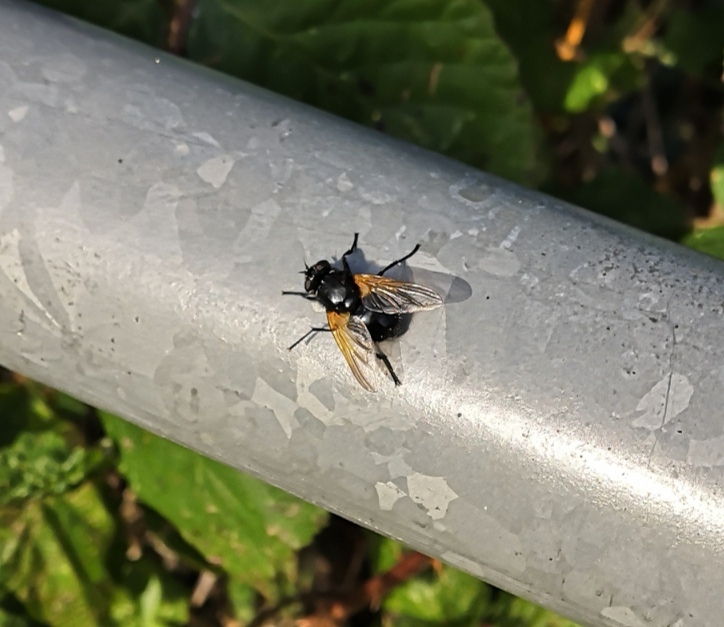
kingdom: Animalia
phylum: Arthropoda
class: Insecta
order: Diptera
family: Muscidae
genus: Mesembrina
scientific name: Mesembrina meridiana
